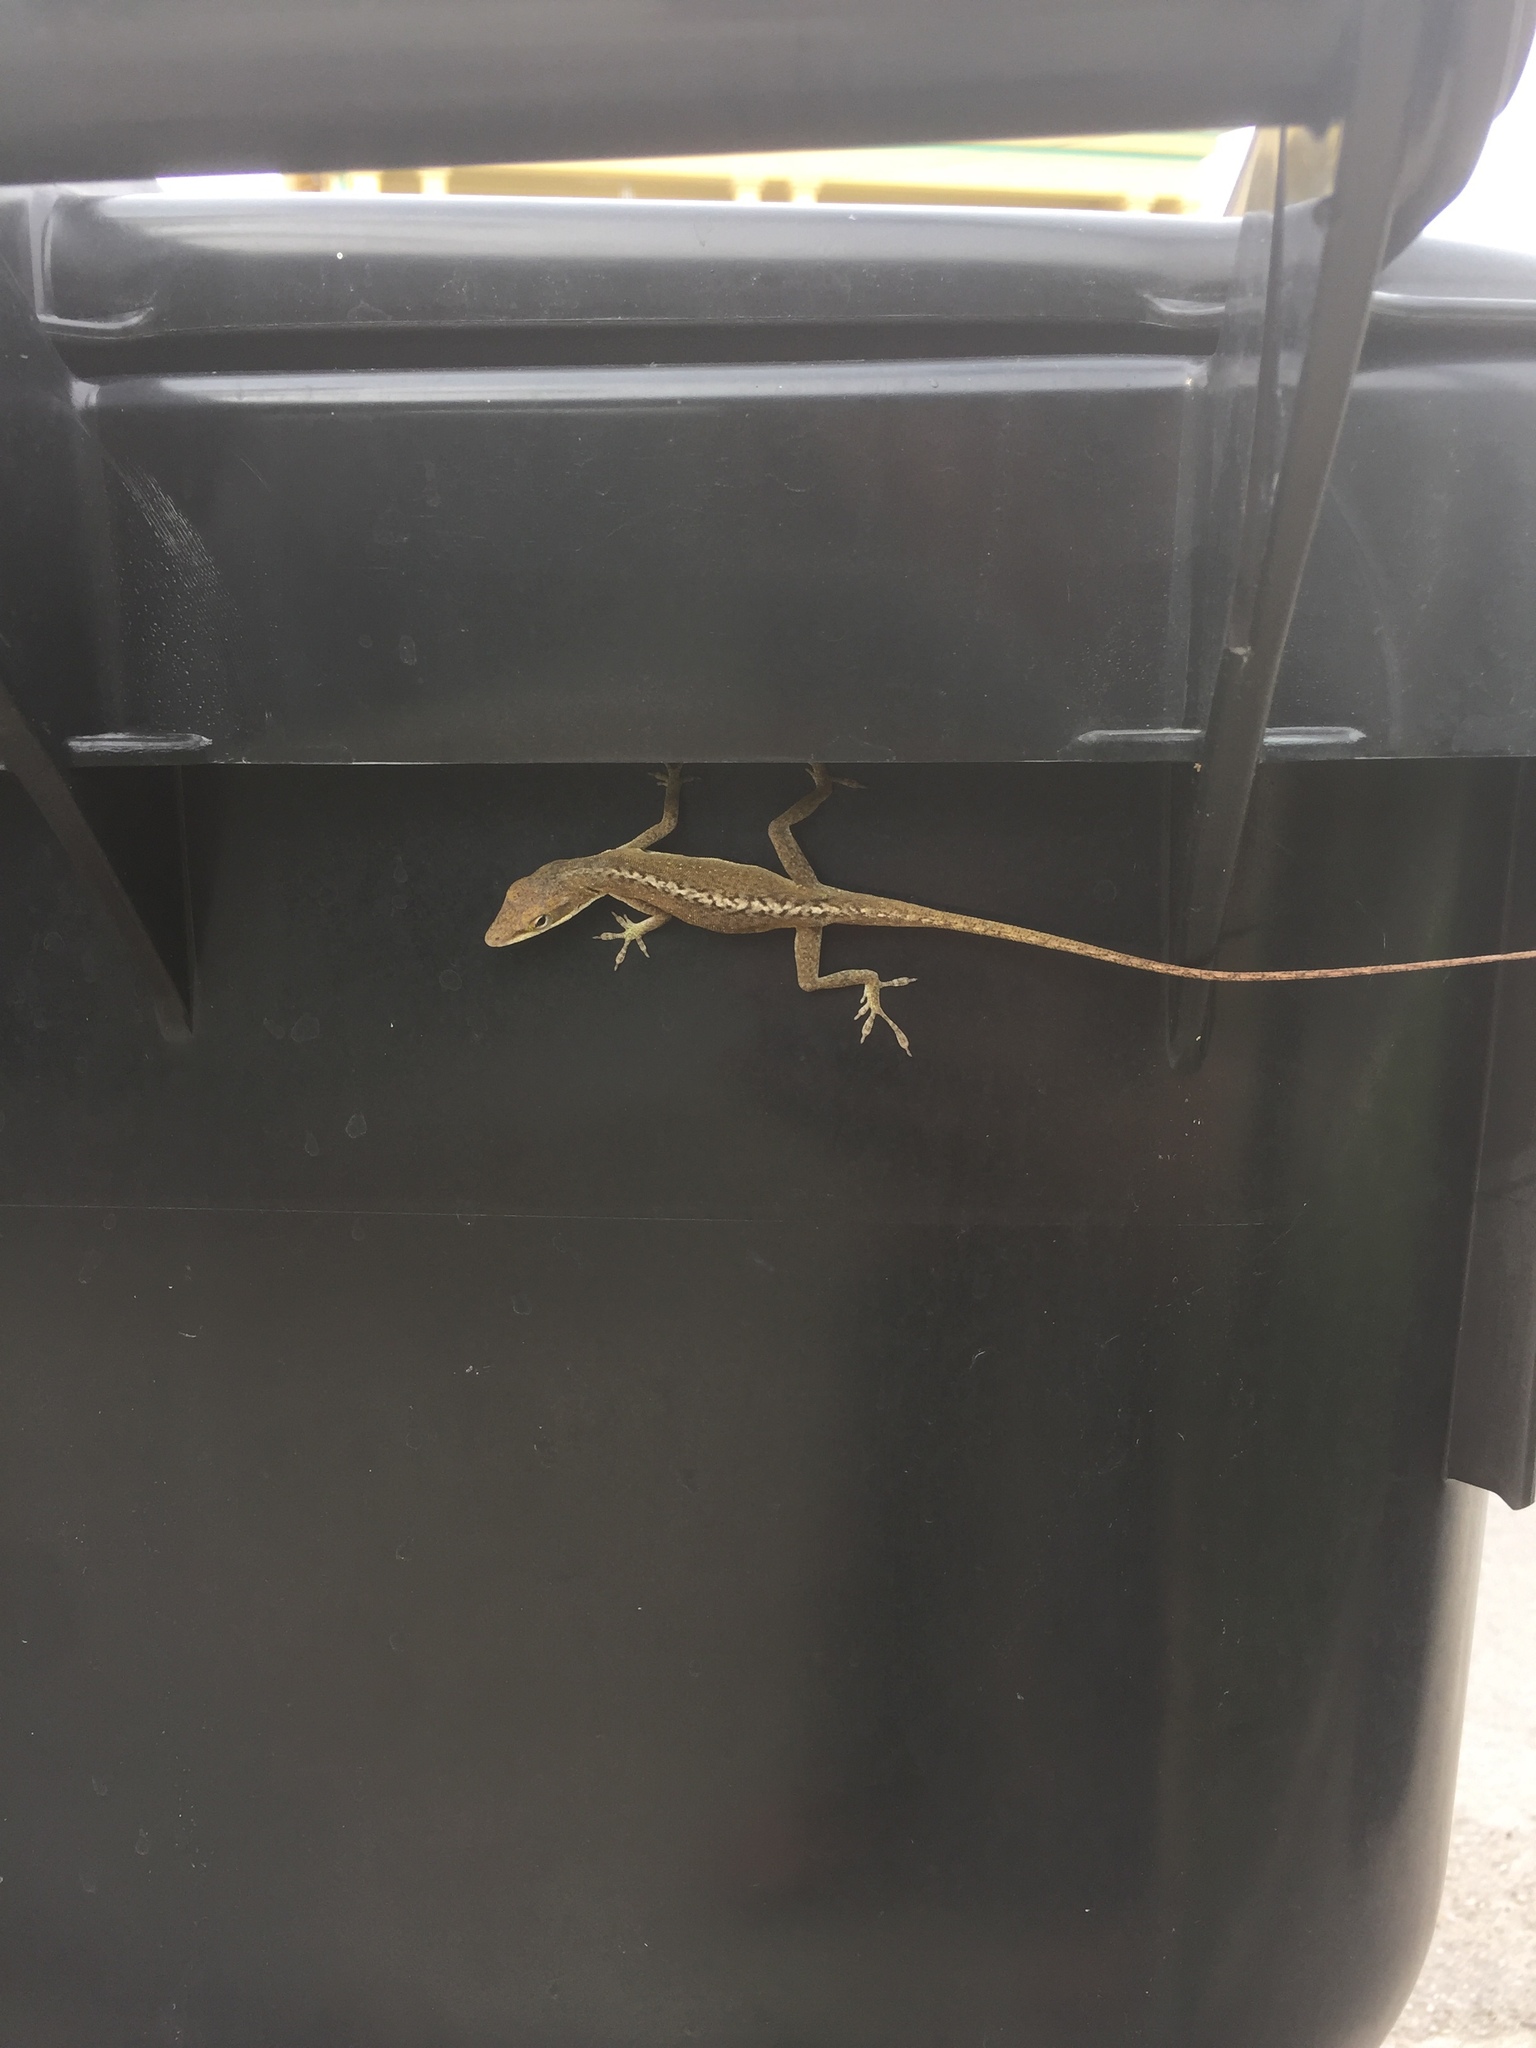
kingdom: Animalia
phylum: Chordata
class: Squamata
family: Dactyloidae
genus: Anolis
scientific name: Anolis carolinensis
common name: Green anole
